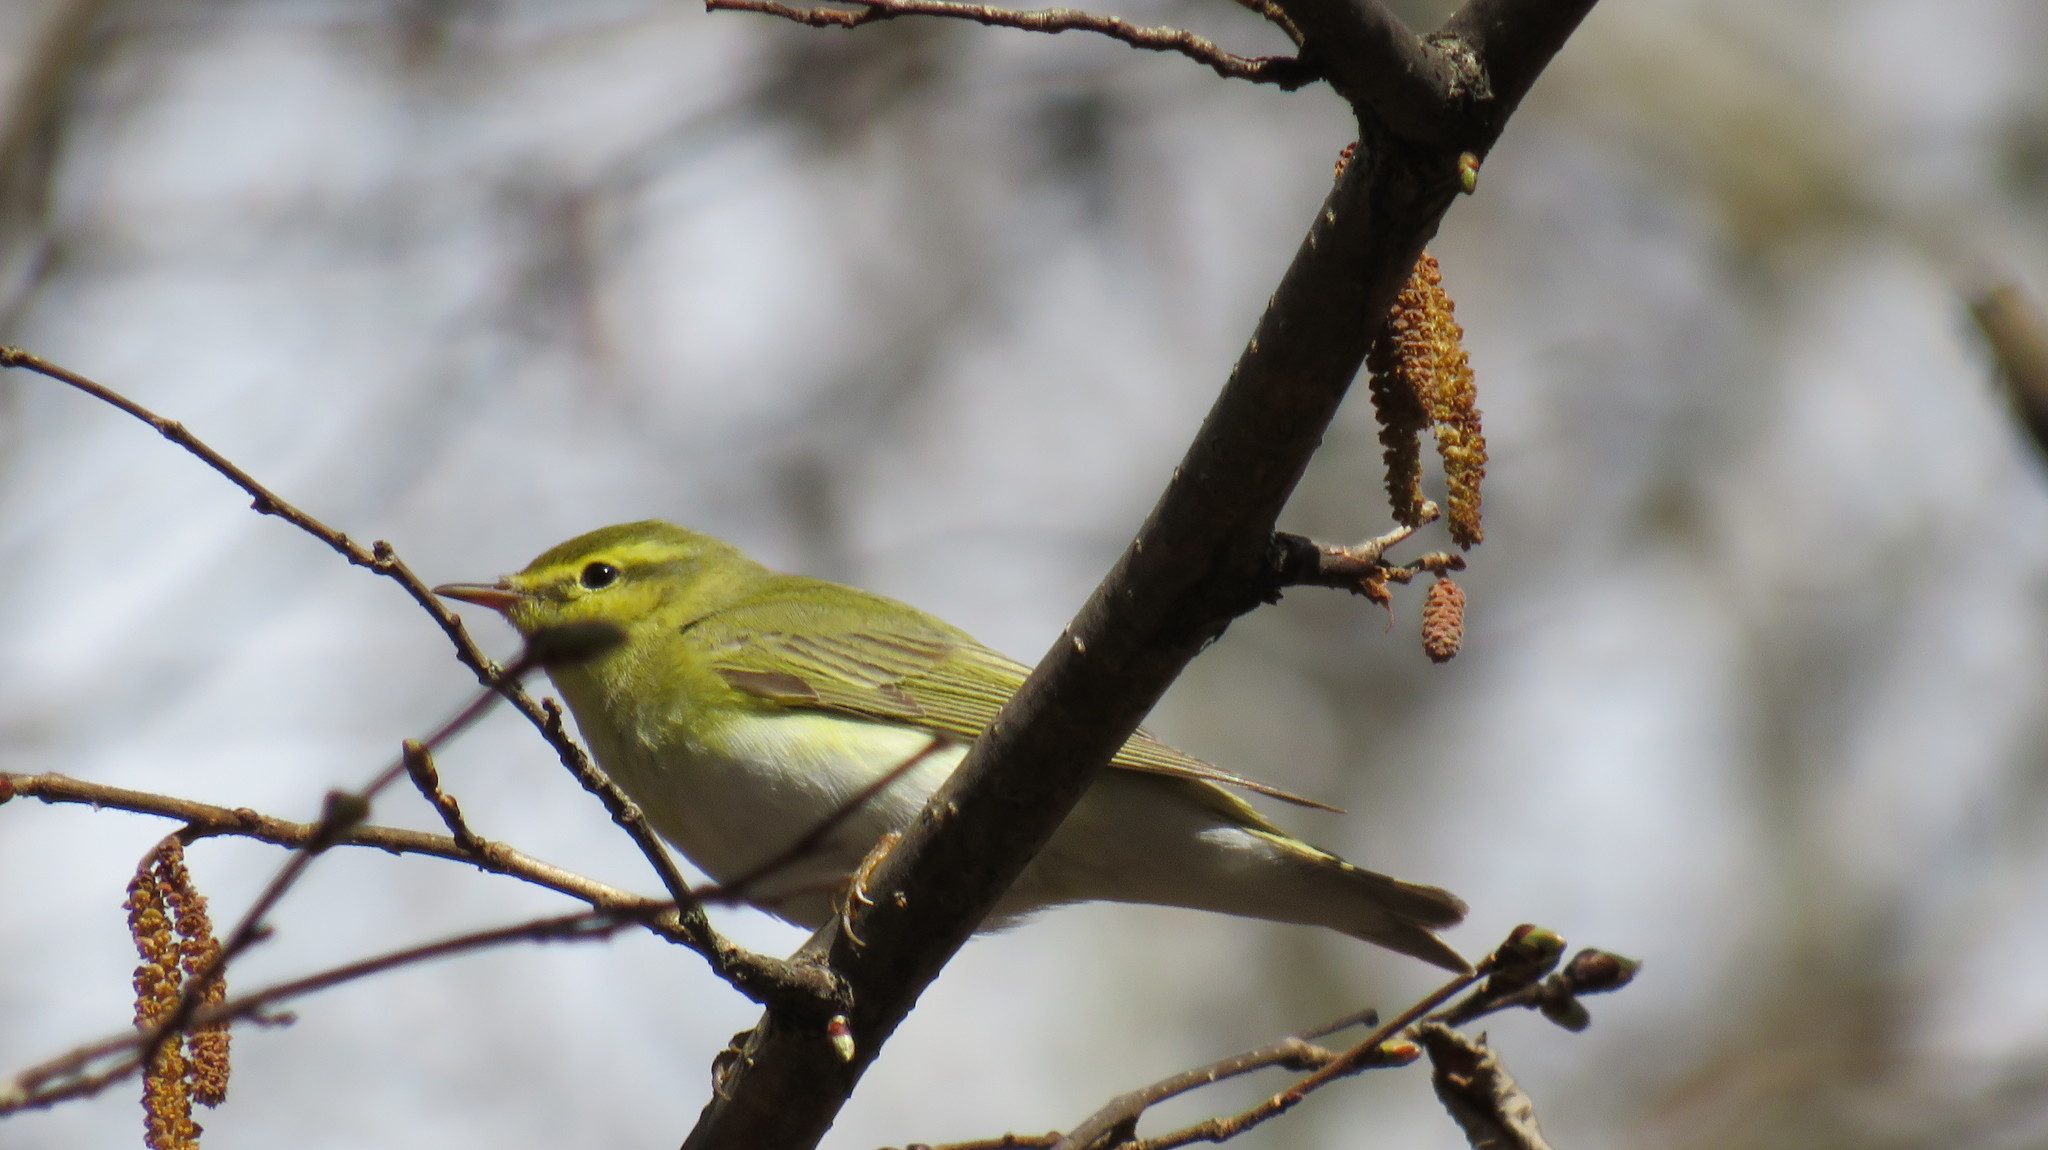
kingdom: Animalia
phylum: Chordata
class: Aves
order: Passeriformes
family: Phylloscopidae
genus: Phylloscopus
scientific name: Phylloscopus sibillatrix
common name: Wood warbler
